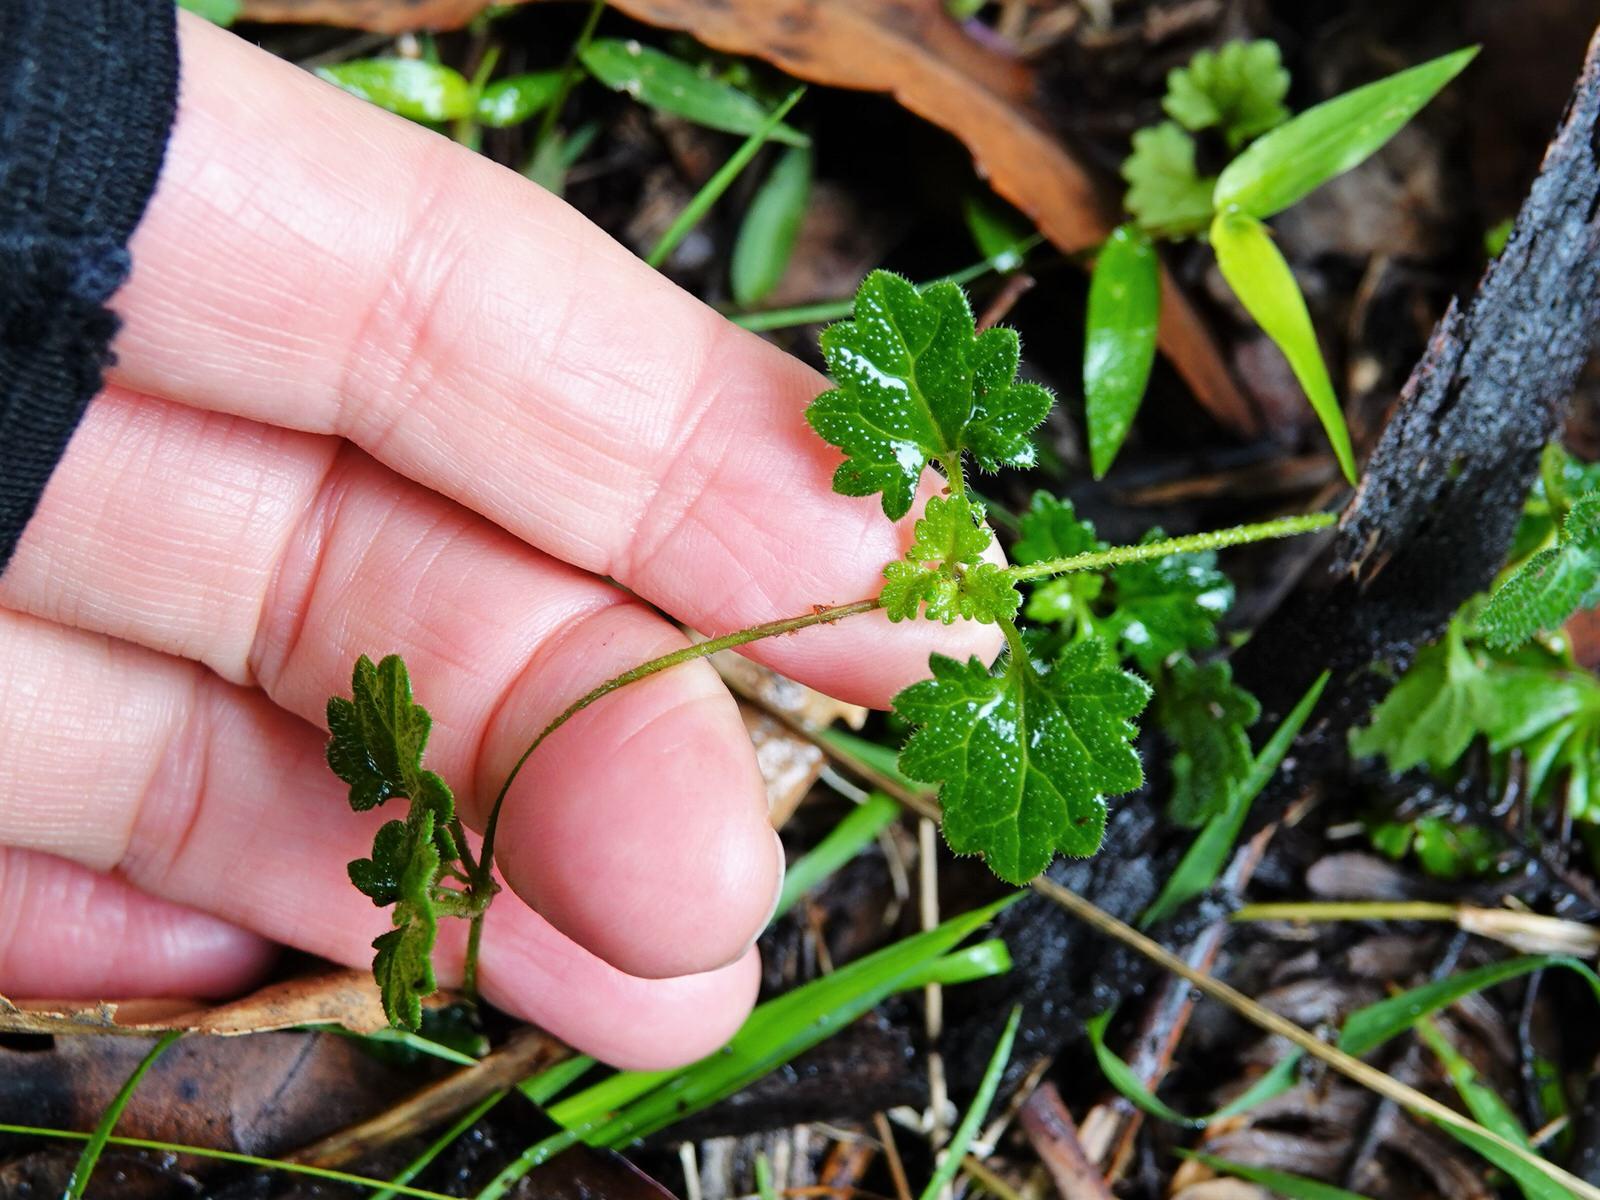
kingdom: Plantae
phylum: Tracheophyta
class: Magnoliopsida
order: Lamiales
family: Plantaginaceae
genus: Veronica
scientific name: Veronica calycina
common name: Cup speedwell
